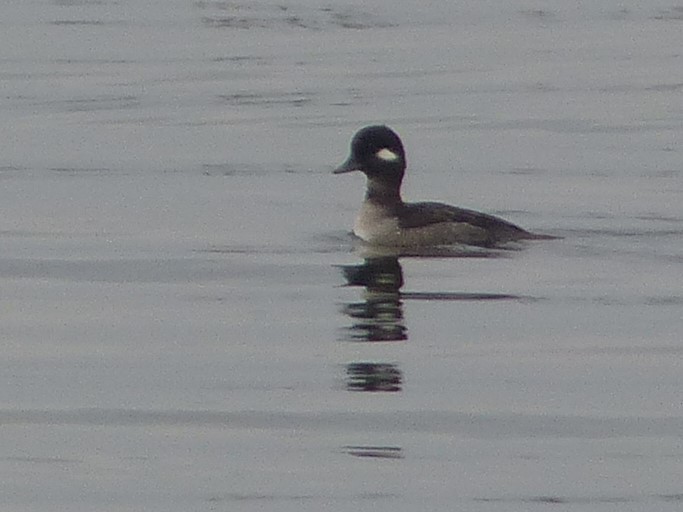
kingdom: Animalia
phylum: Chordata
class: Aves
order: Anseriformes
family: Anatidae
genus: Bucephala
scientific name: Bucephala albeola
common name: Bufflehead
